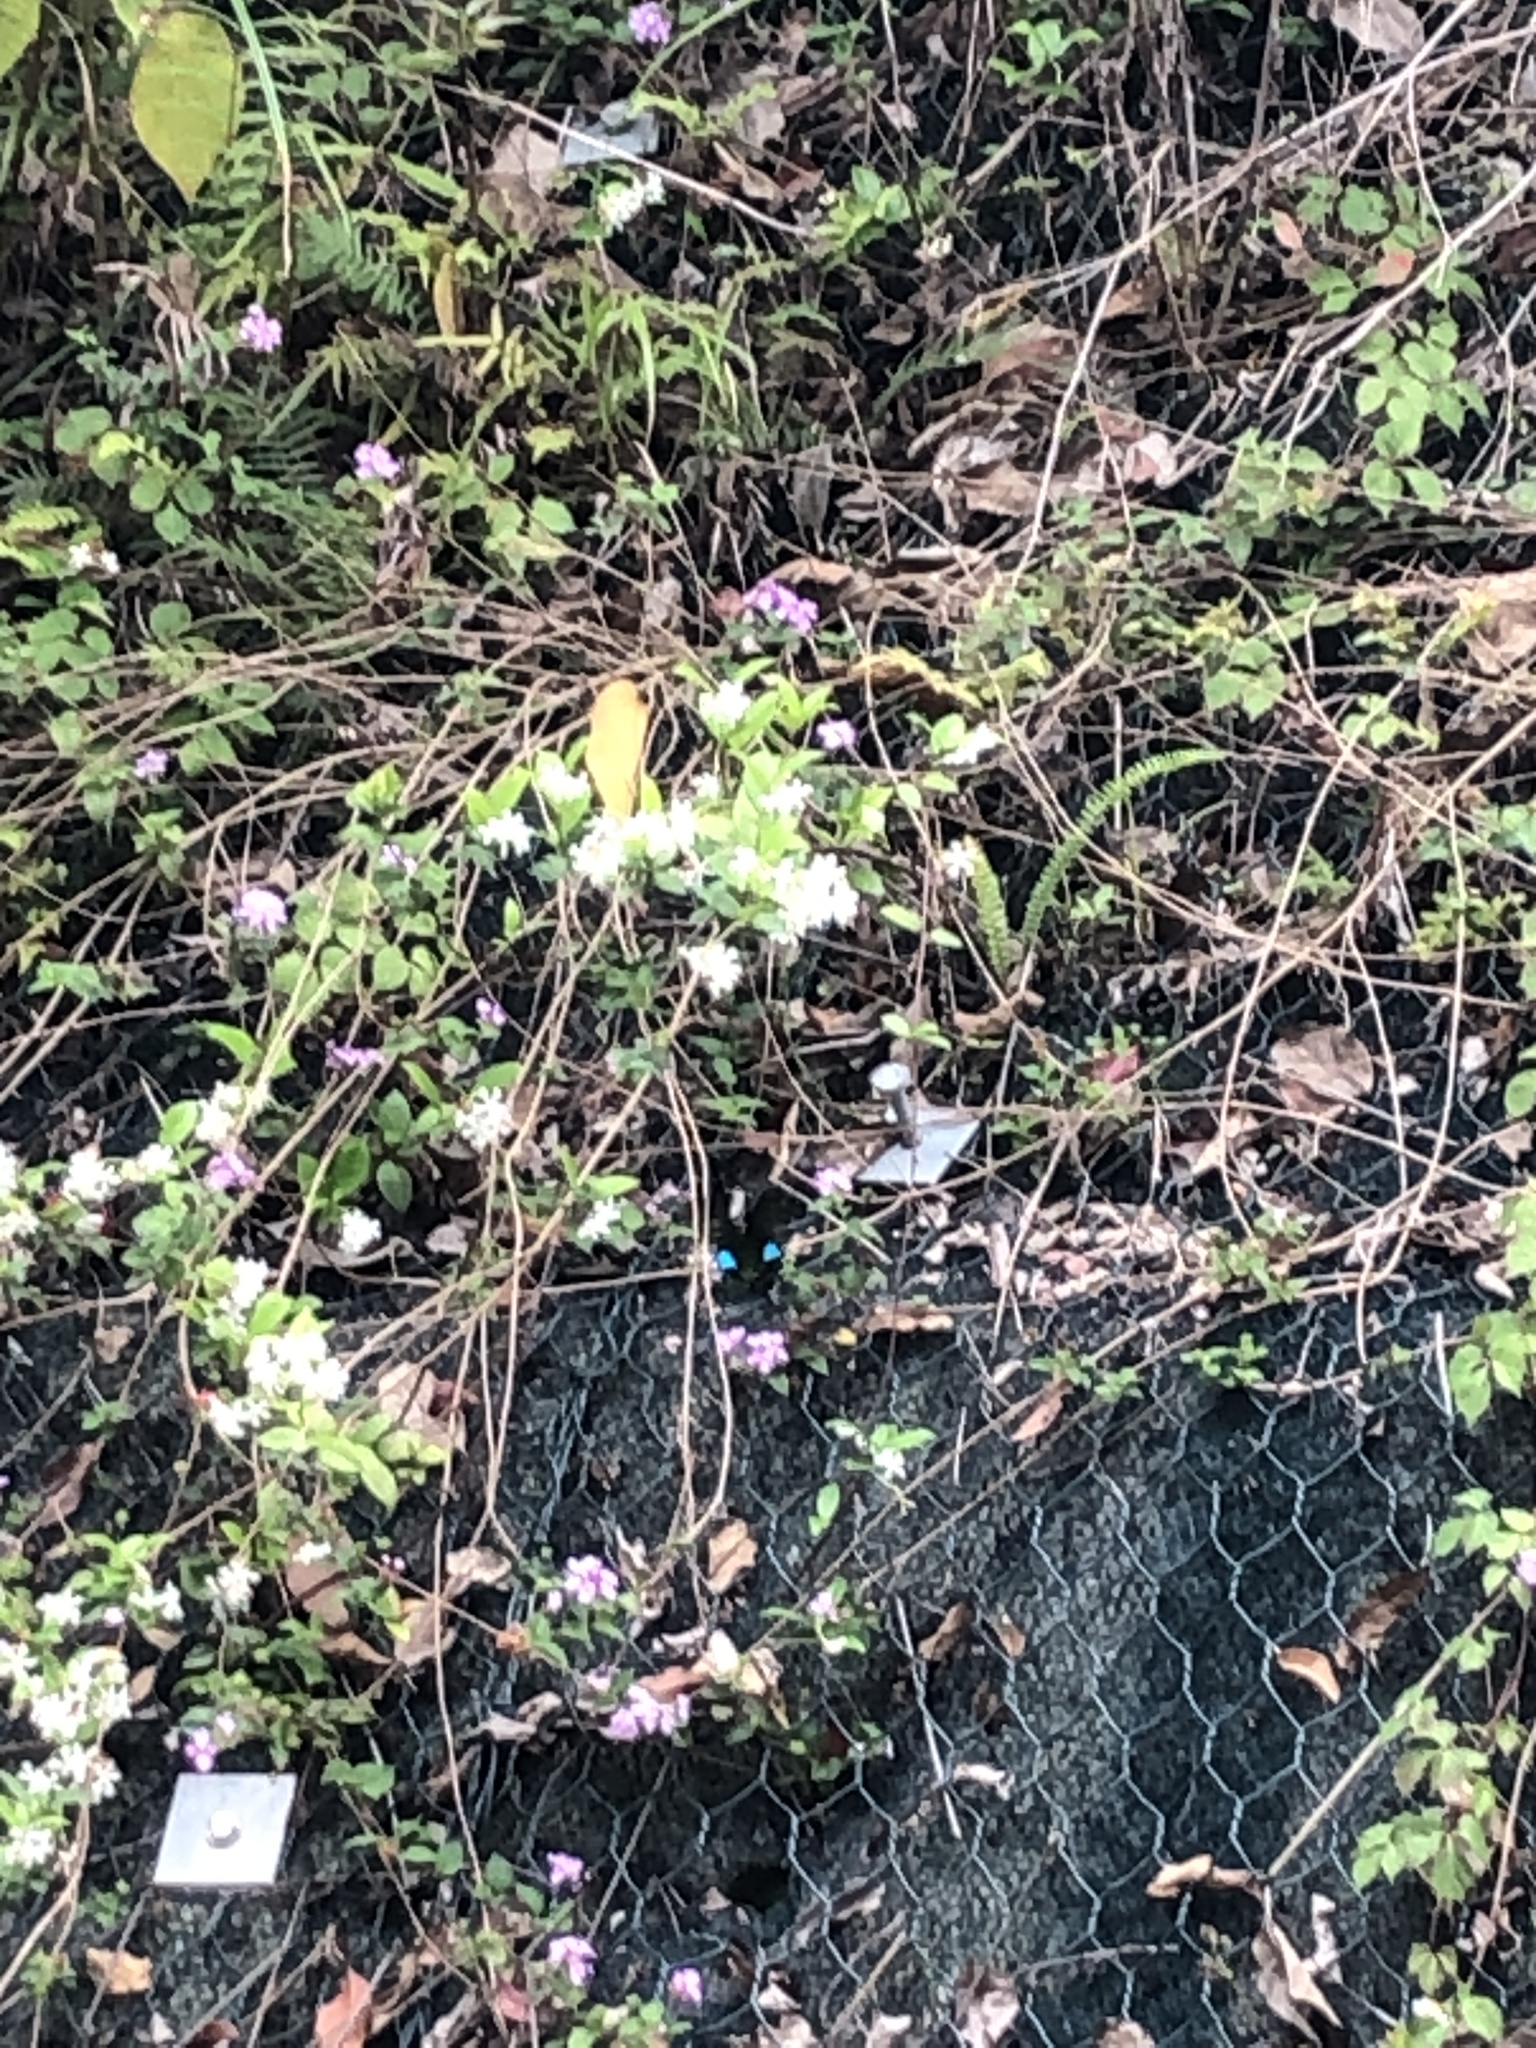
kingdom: Animalia
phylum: Arthropoda
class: Insecta
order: Lepidoptera
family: Papilionidae
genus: Papilio
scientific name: Papilio paris
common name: Paris peacock
